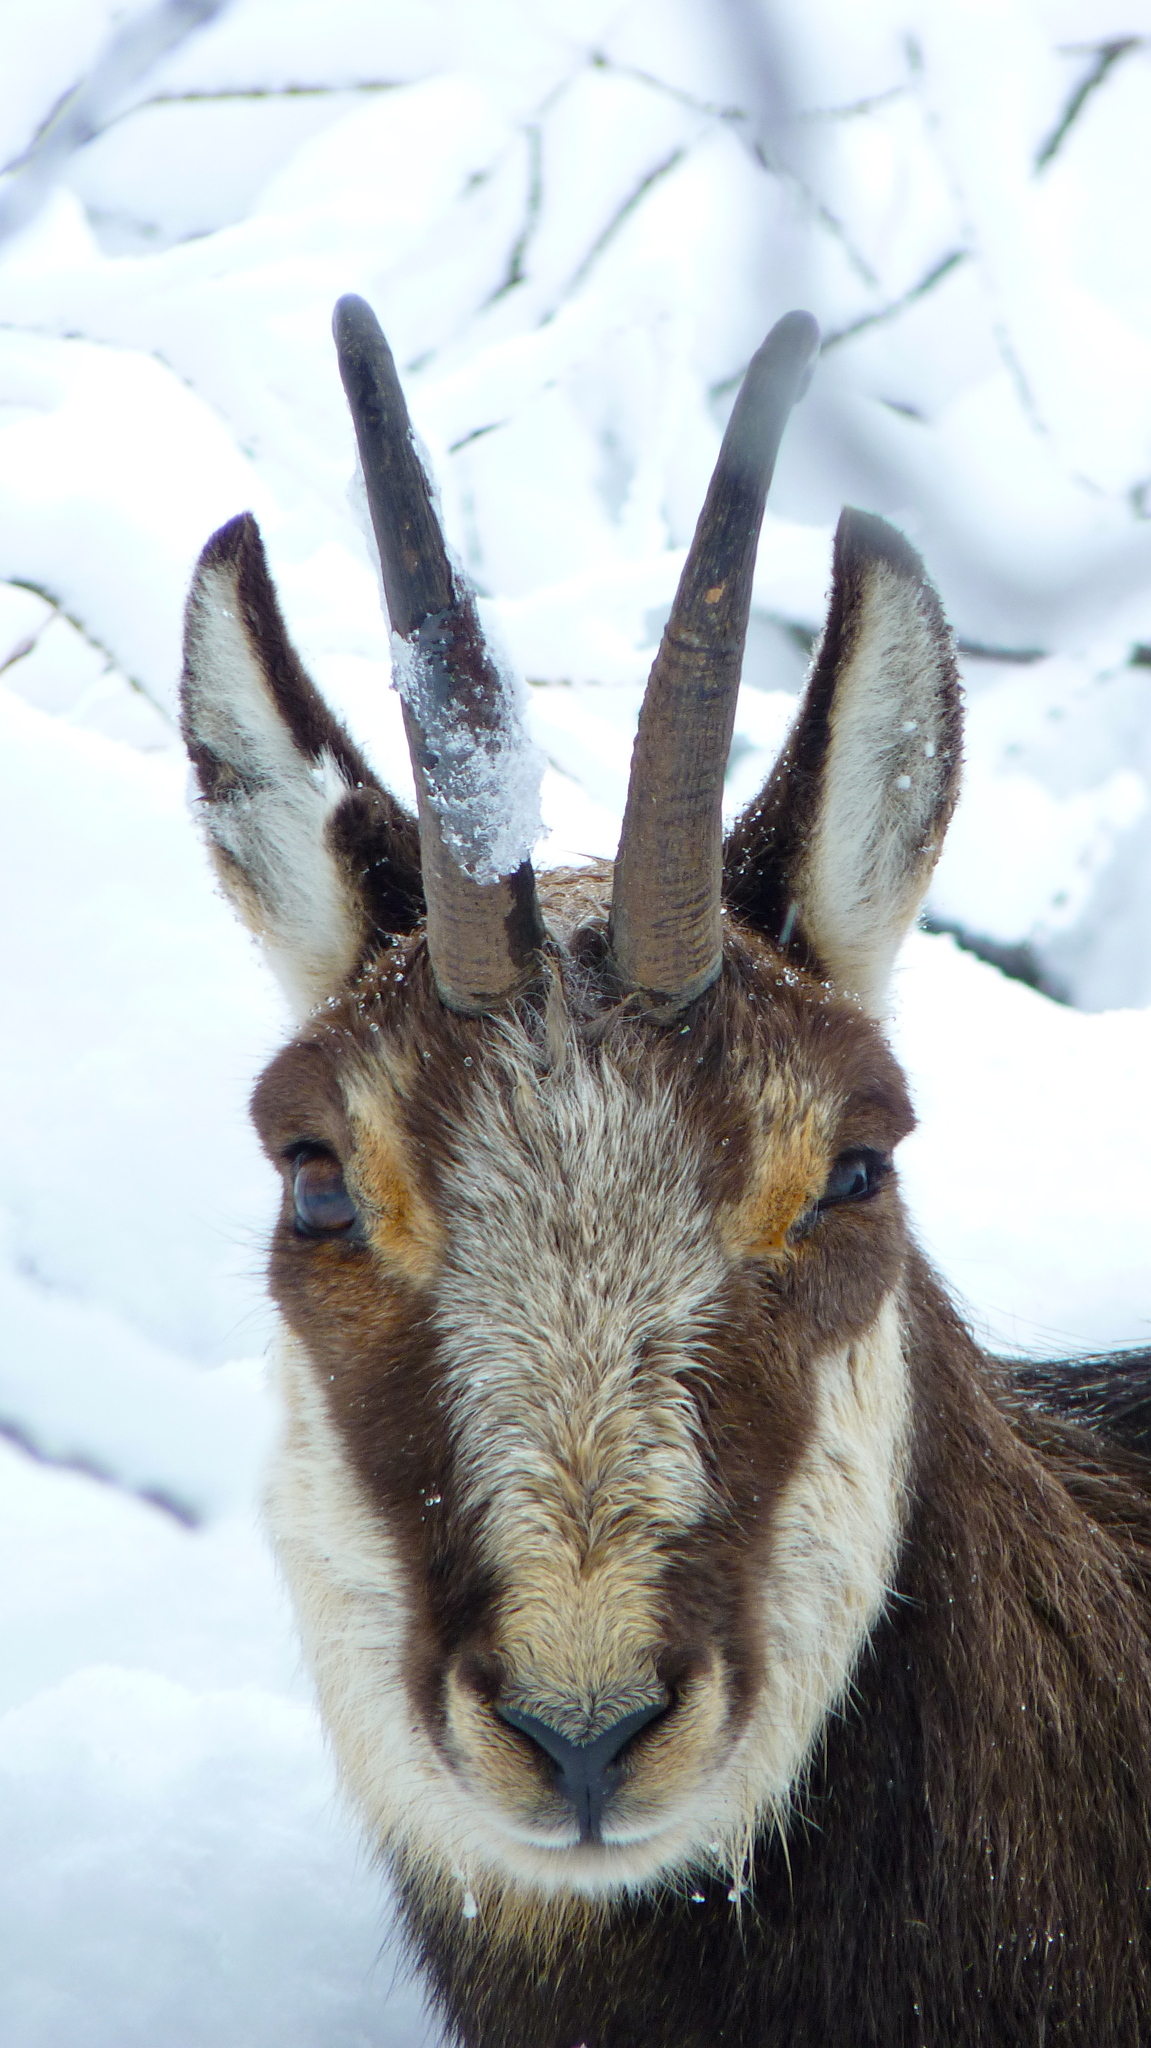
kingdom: Animalia
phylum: Chordata
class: Mammalia
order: Artiodactyla
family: Bovidae
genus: Rupicapra
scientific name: Rupicapra rupicapra
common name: Chamois
